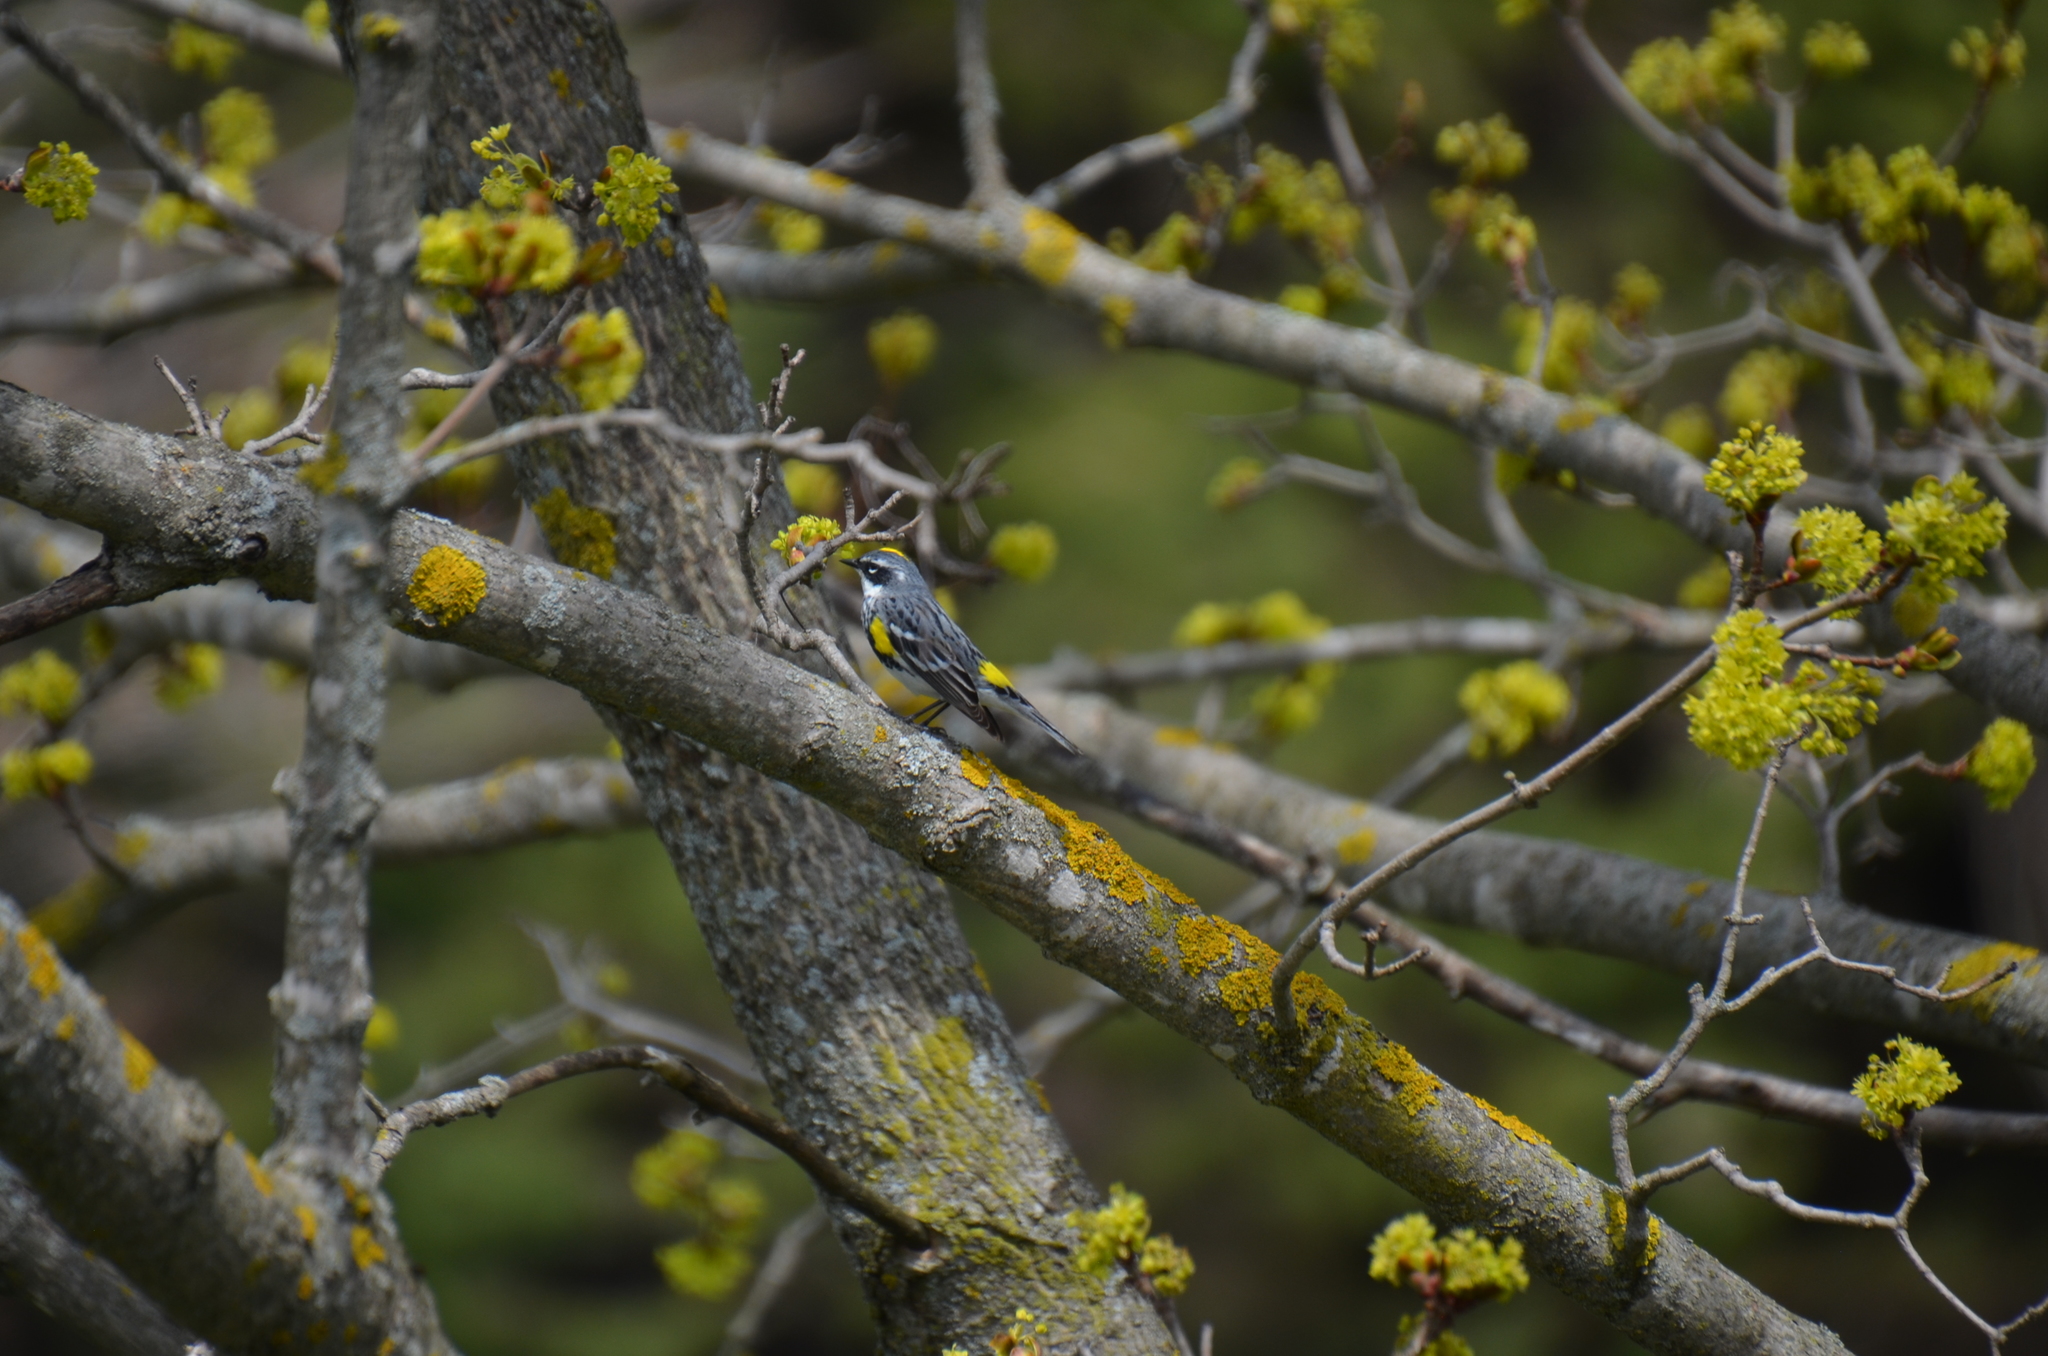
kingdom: Animalia
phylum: Chordata
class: Aves
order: Passeriformes
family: Parulidae
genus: Setophaga
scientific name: Setophaga coronata
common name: Myrtle warbler
